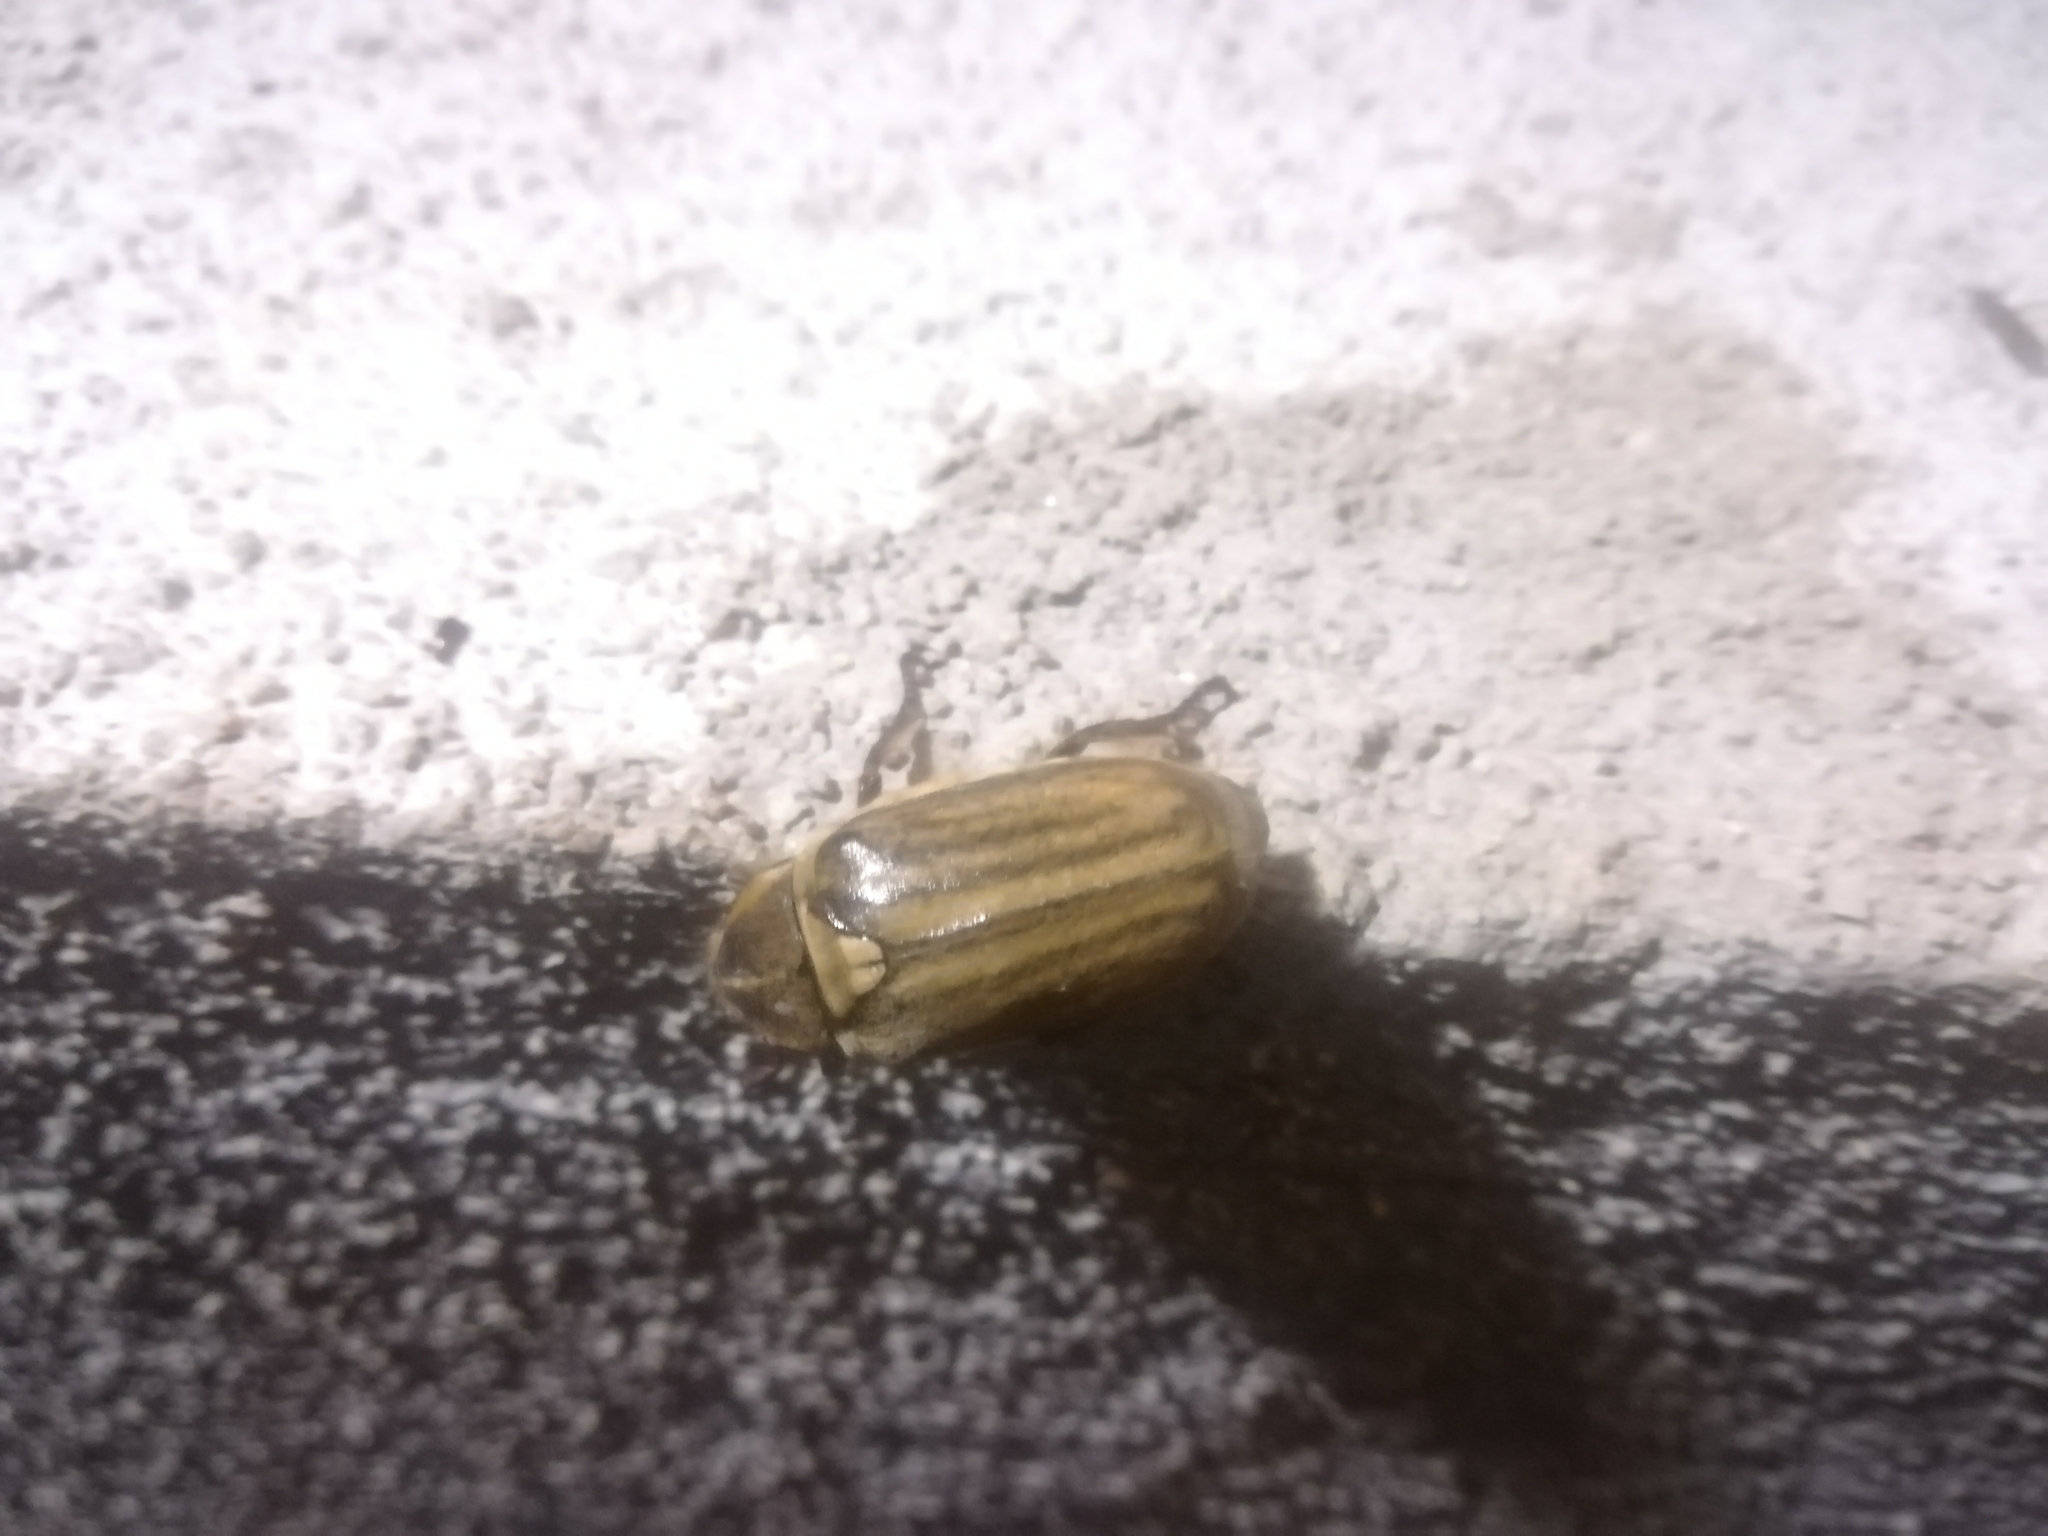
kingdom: Animalia
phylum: Arthropoda
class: Insecta
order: Coleoptera
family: Scarabaeidae
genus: Anoxia
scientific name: Anoxia matutinalis
